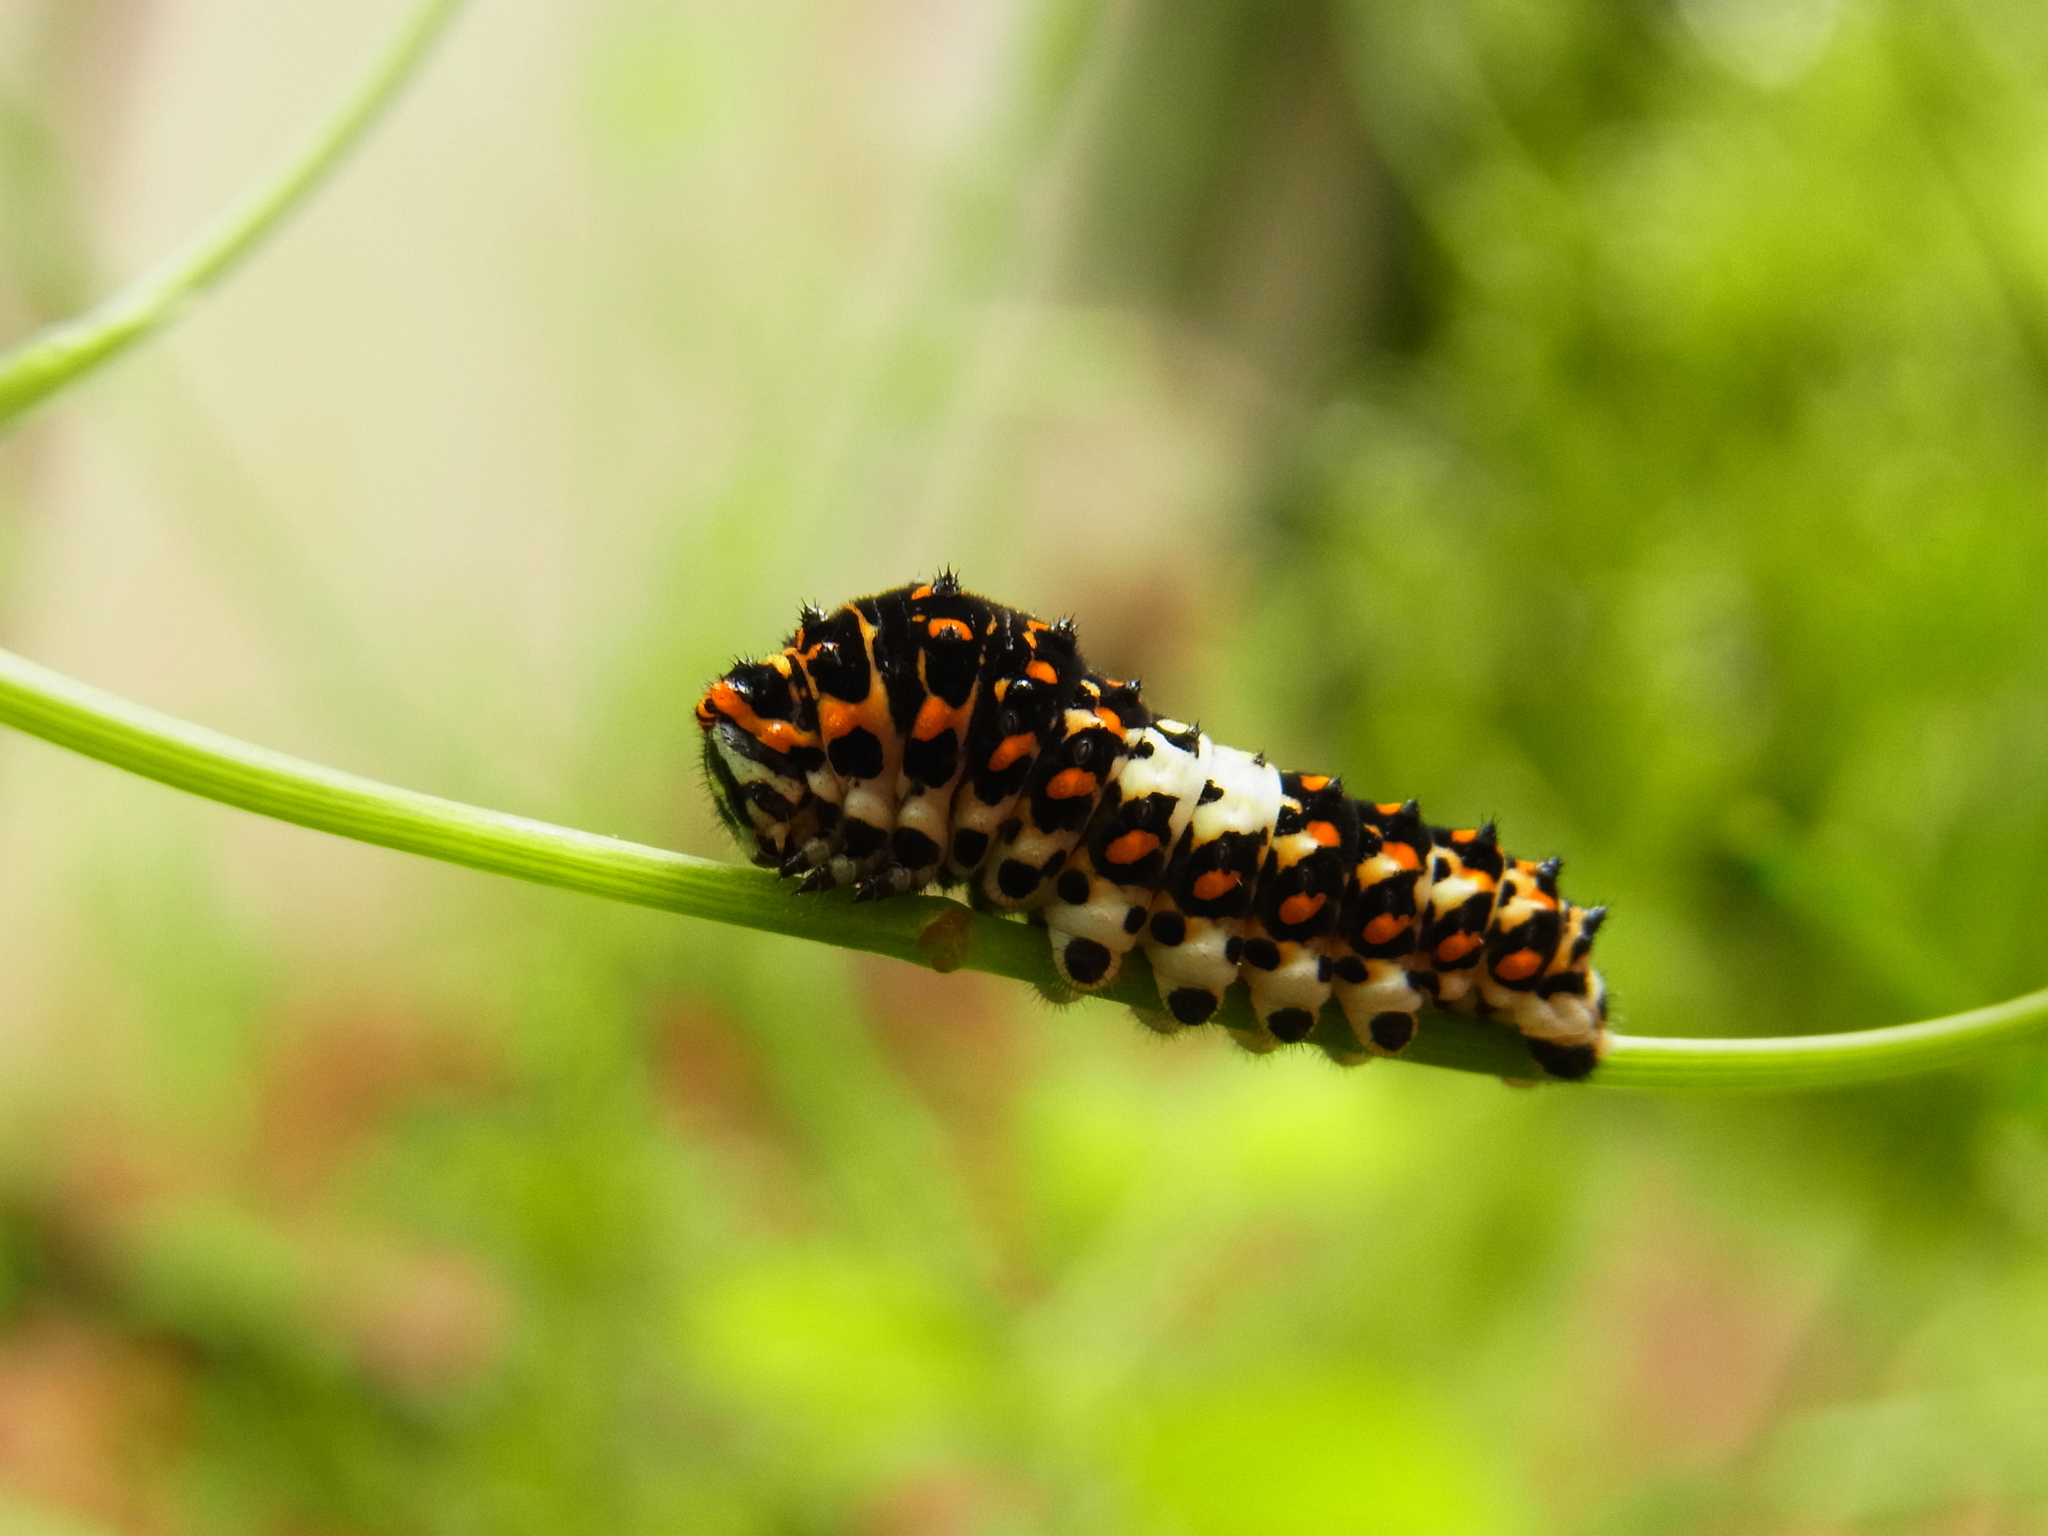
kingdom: Animalia
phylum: Arthropoda
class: Insecta
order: Lepidoptera
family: Papilionidae
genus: Papilio
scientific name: Papilio machaon
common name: Swallowtail
